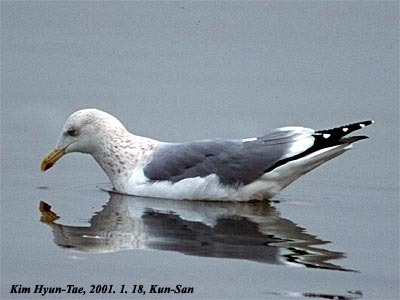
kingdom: Animalia
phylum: Chordata
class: Aves
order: Charadriiformes
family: Laridae
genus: Larus
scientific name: Larus vegae
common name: Vega gull
